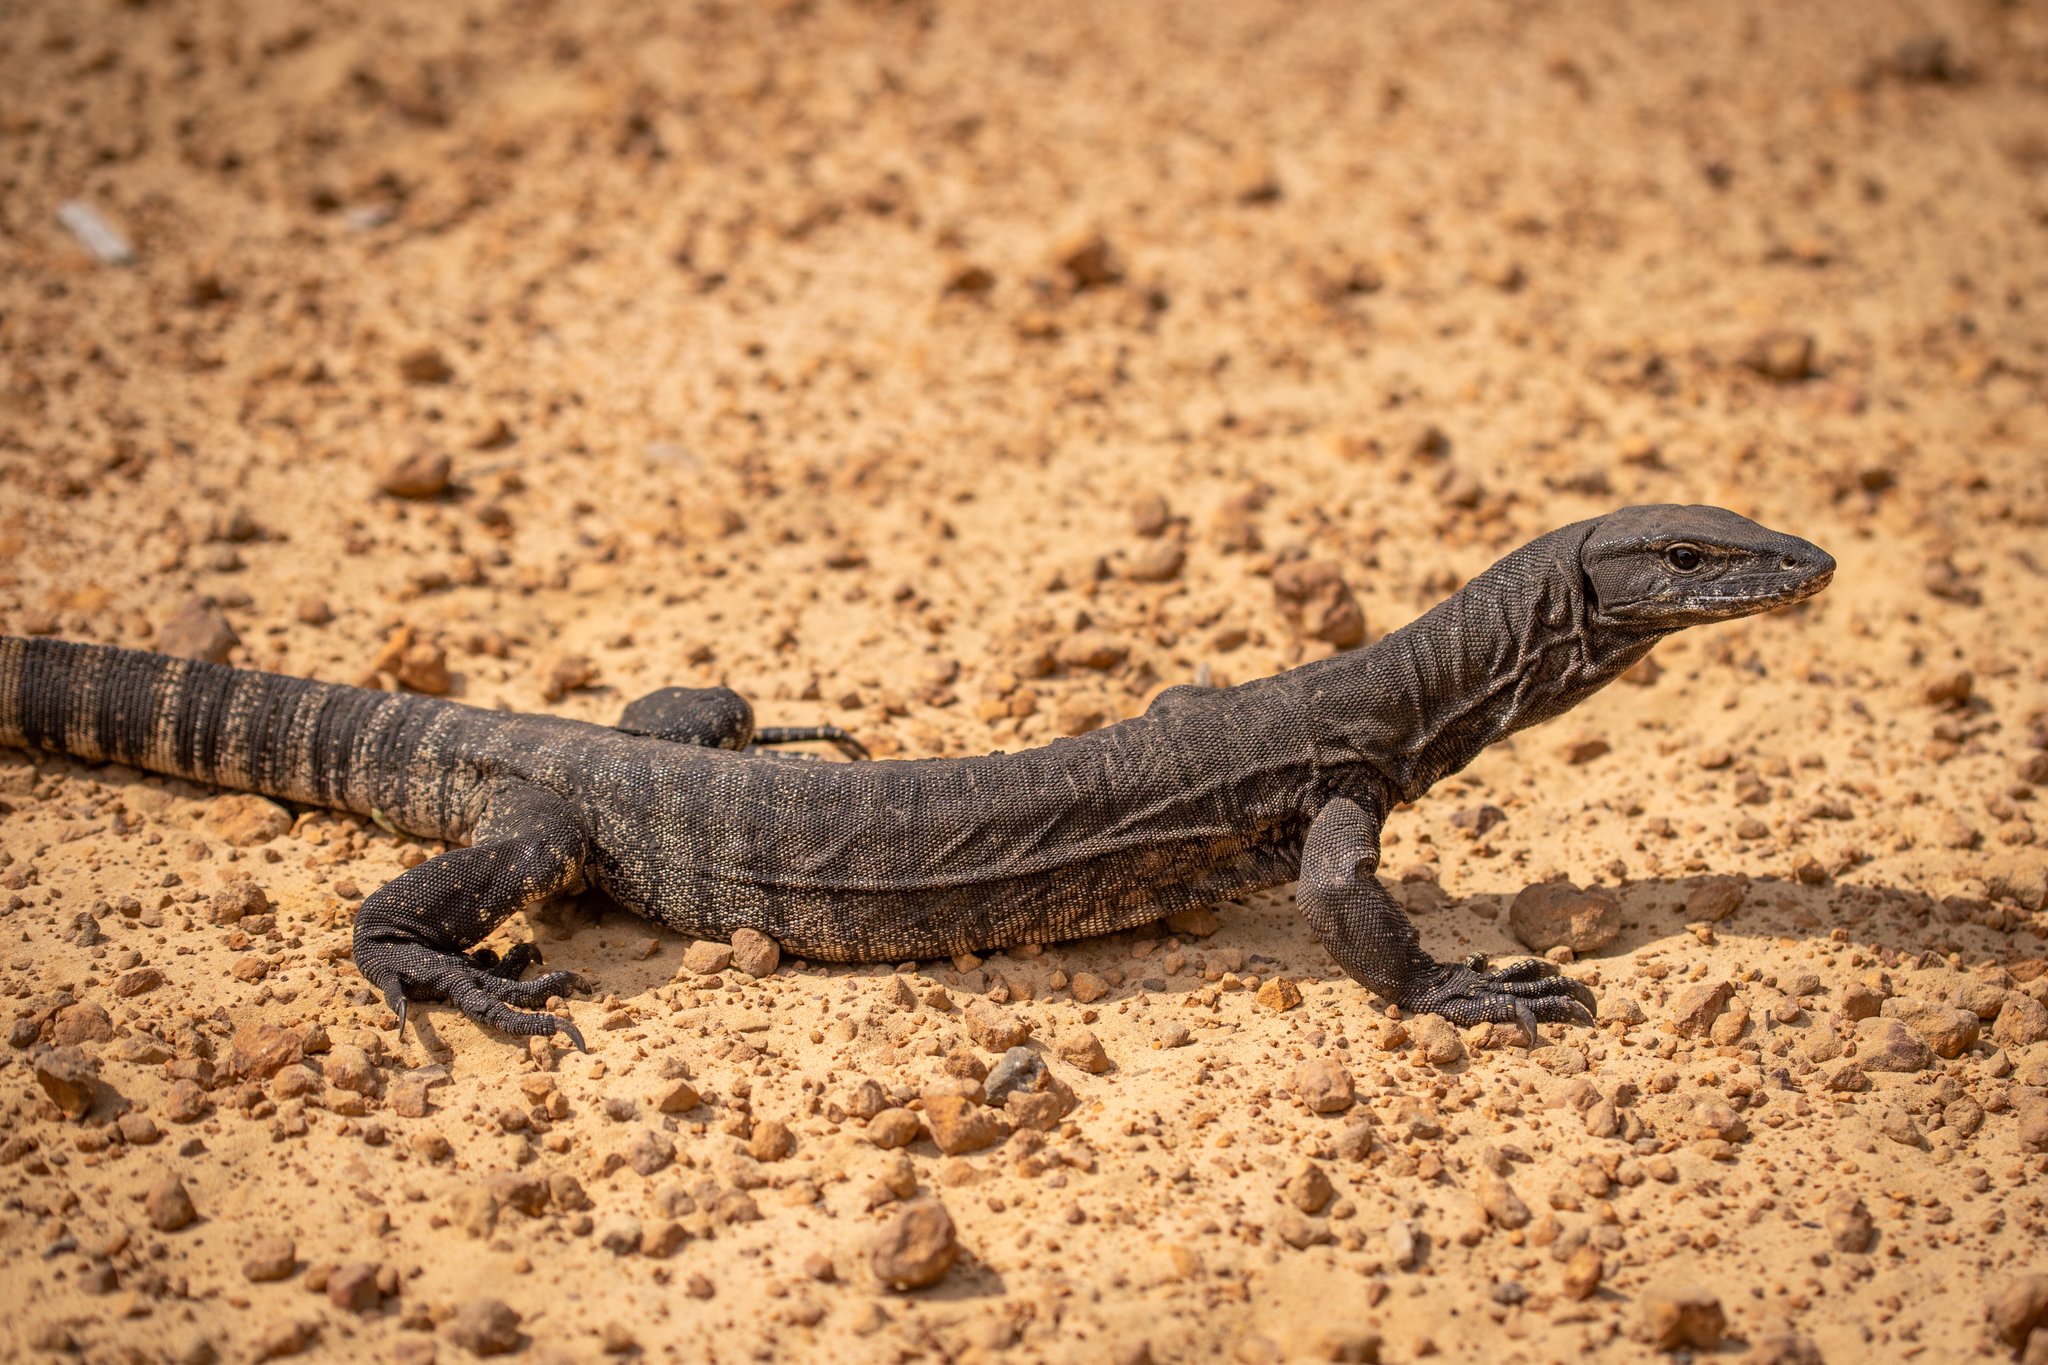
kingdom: Animalia
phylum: Chordata
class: Squamata
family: Varanidae
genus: Varanus
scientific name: Varanus rosenbergi
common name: Heath monitor
